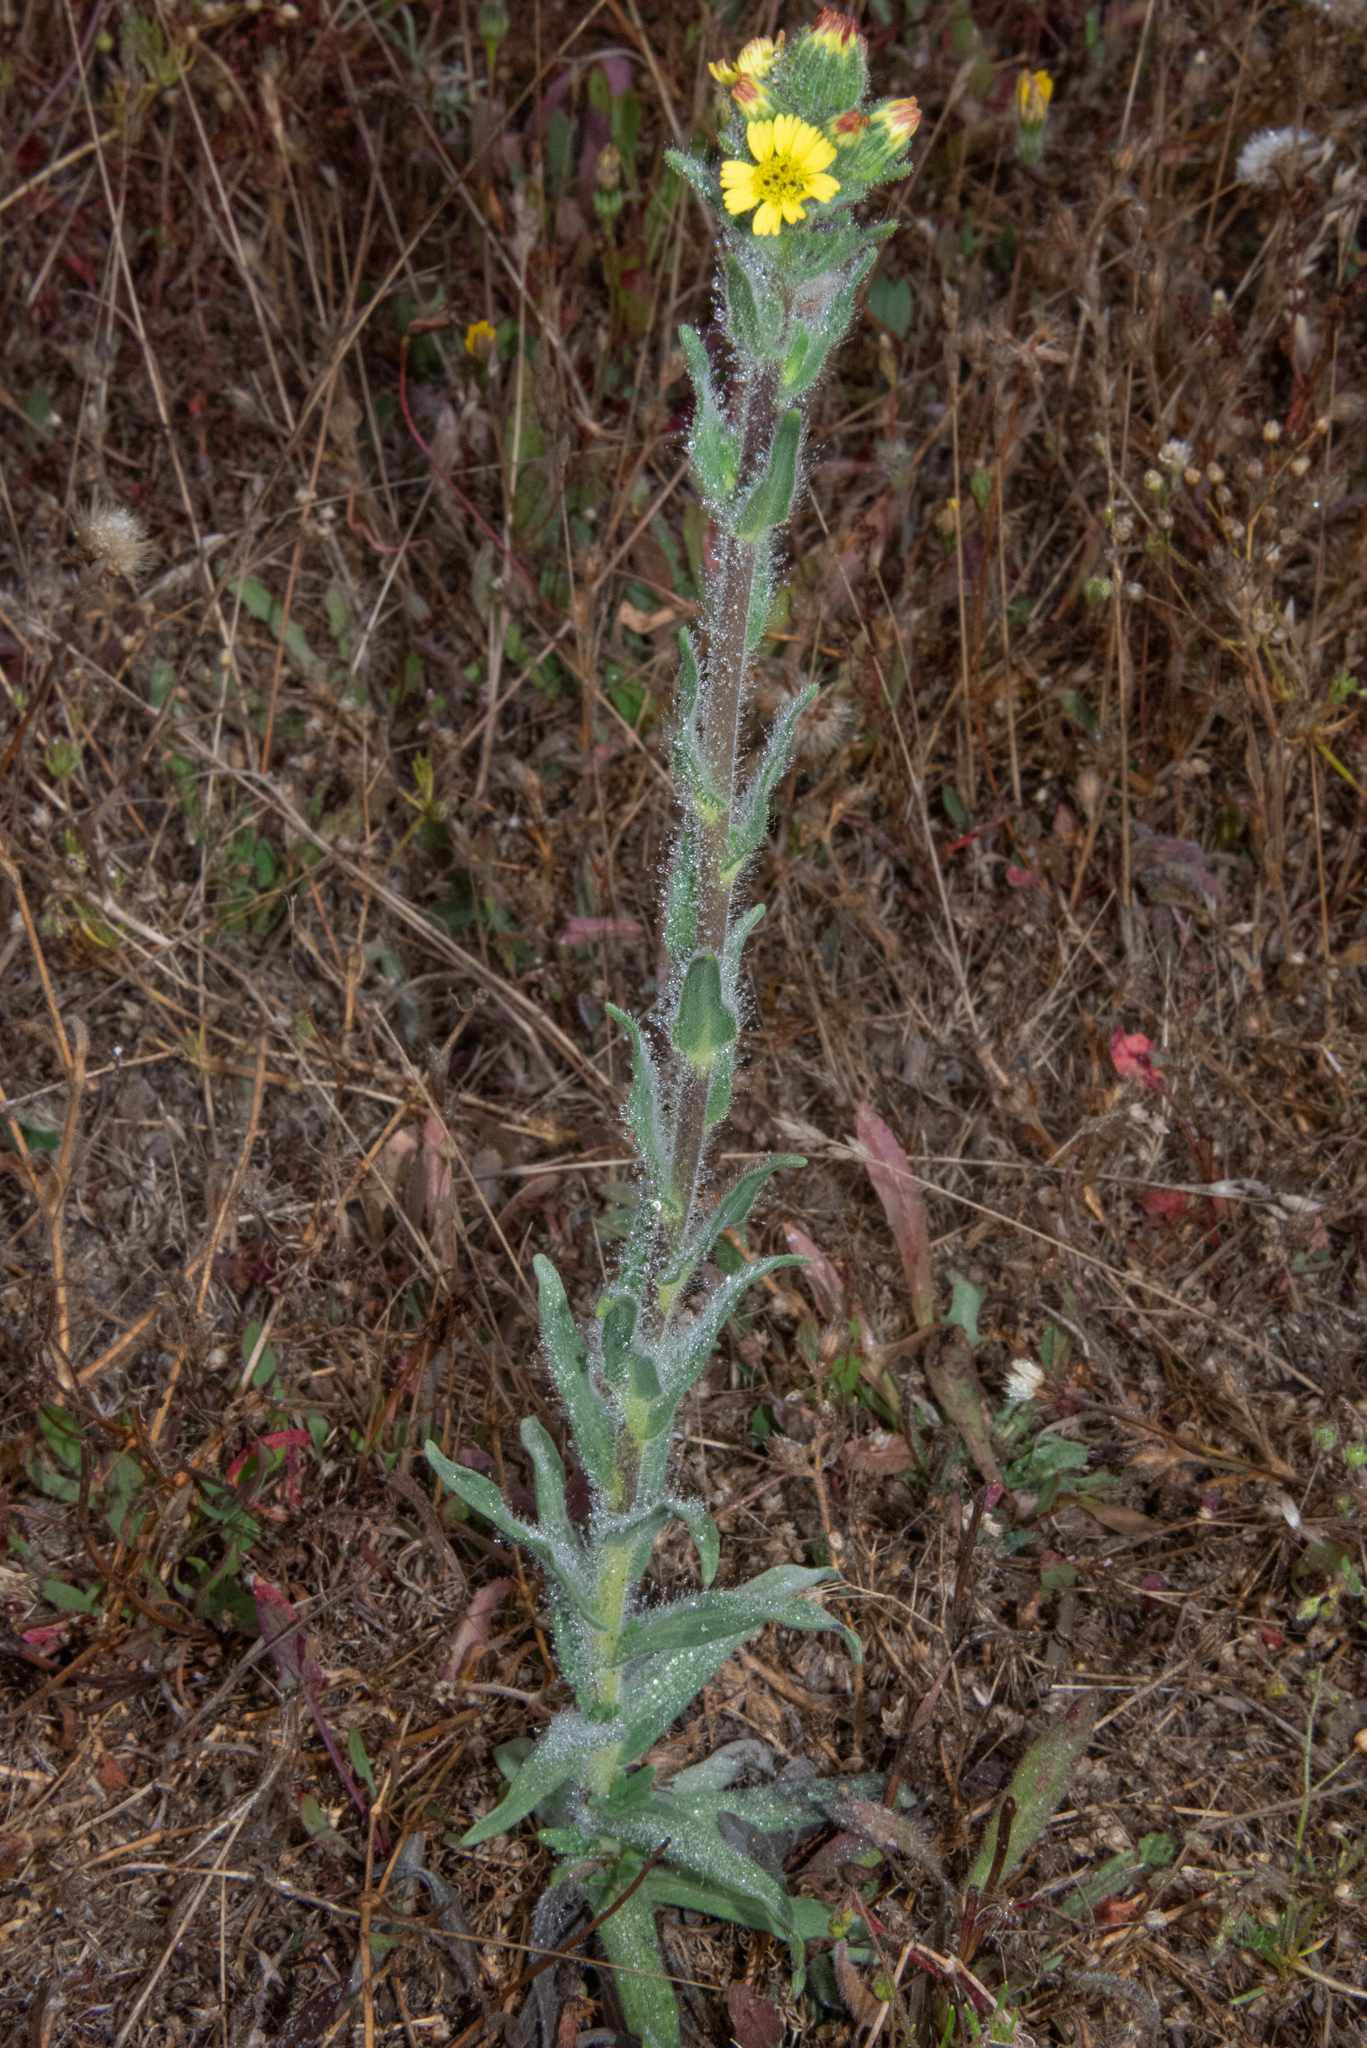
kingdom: Plantae
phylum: Tracheophyta
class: Magnoliopsida
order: Asterales
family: Asteraceae
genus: Madia
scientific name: Madia sativa
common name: Coast tarweed
